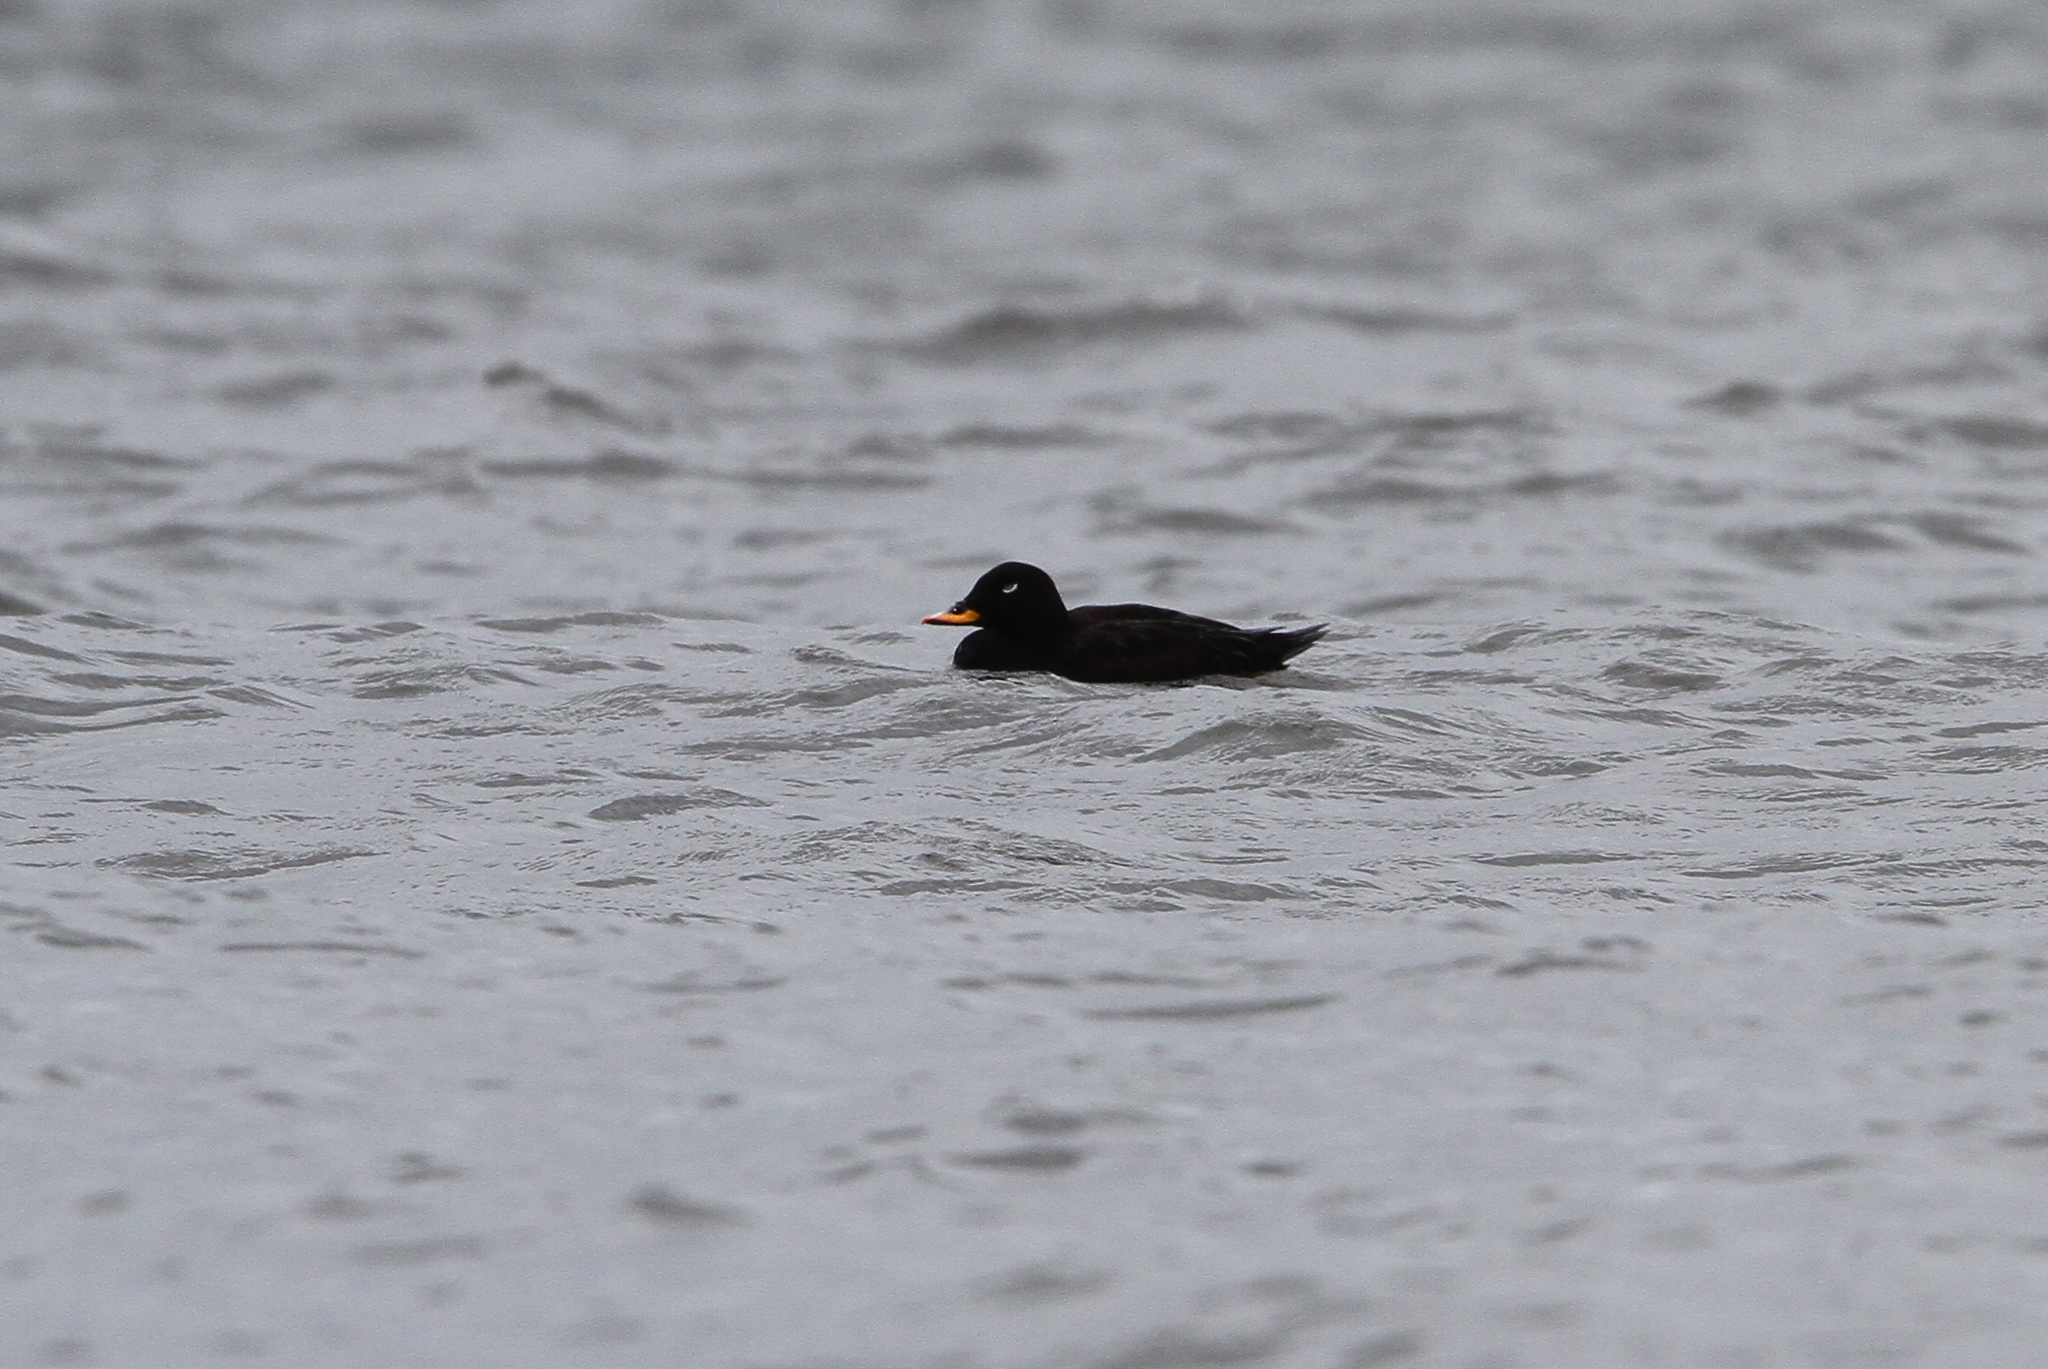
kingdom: Animalia
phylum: Chordata
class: Aves
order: Anseriformes
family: Anatidae
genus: Melanitta
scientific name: Melanitta fusca
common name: Velvet scoter
